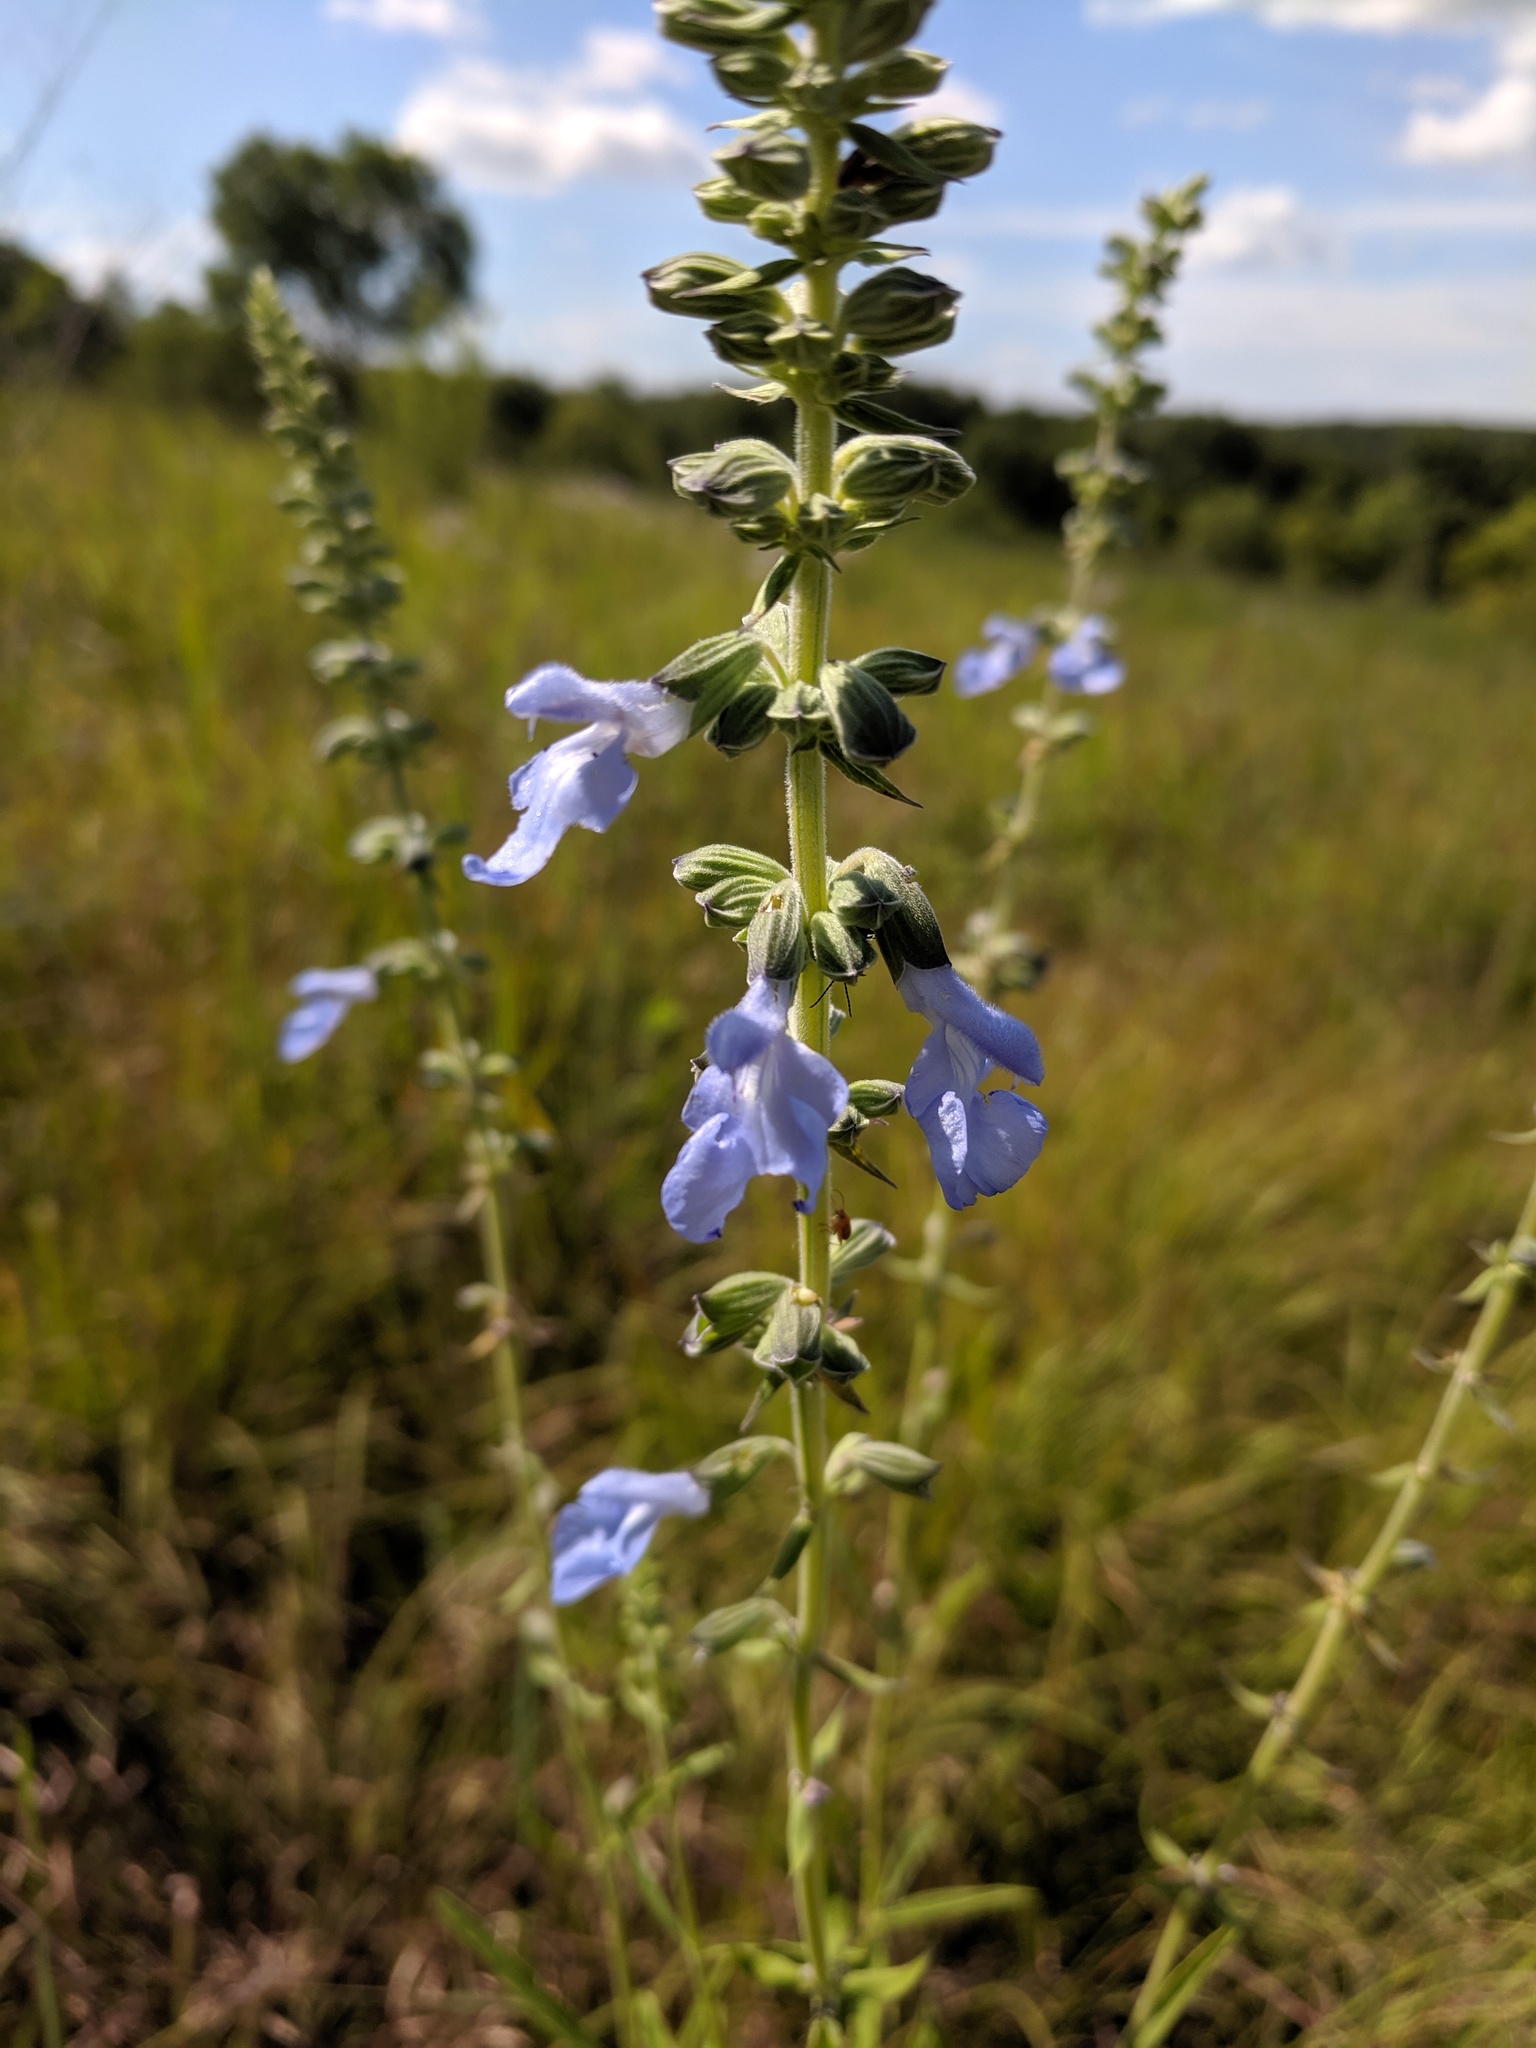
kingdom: Plantae
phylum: Tracheophyta
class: Magnoliopsida
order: Lamiales
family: Lamiaceae
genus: Salvia
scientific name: Salvia azurea
